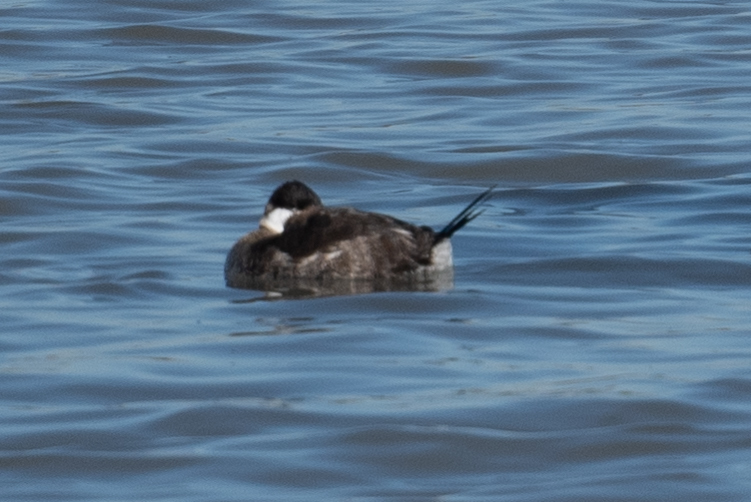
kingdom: Animalia
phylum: Chordata
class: Aves
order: Anseriformes
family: Anatidae
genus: Oxyura
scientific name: Oxyura jamaicensis
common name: Ruddy duck
